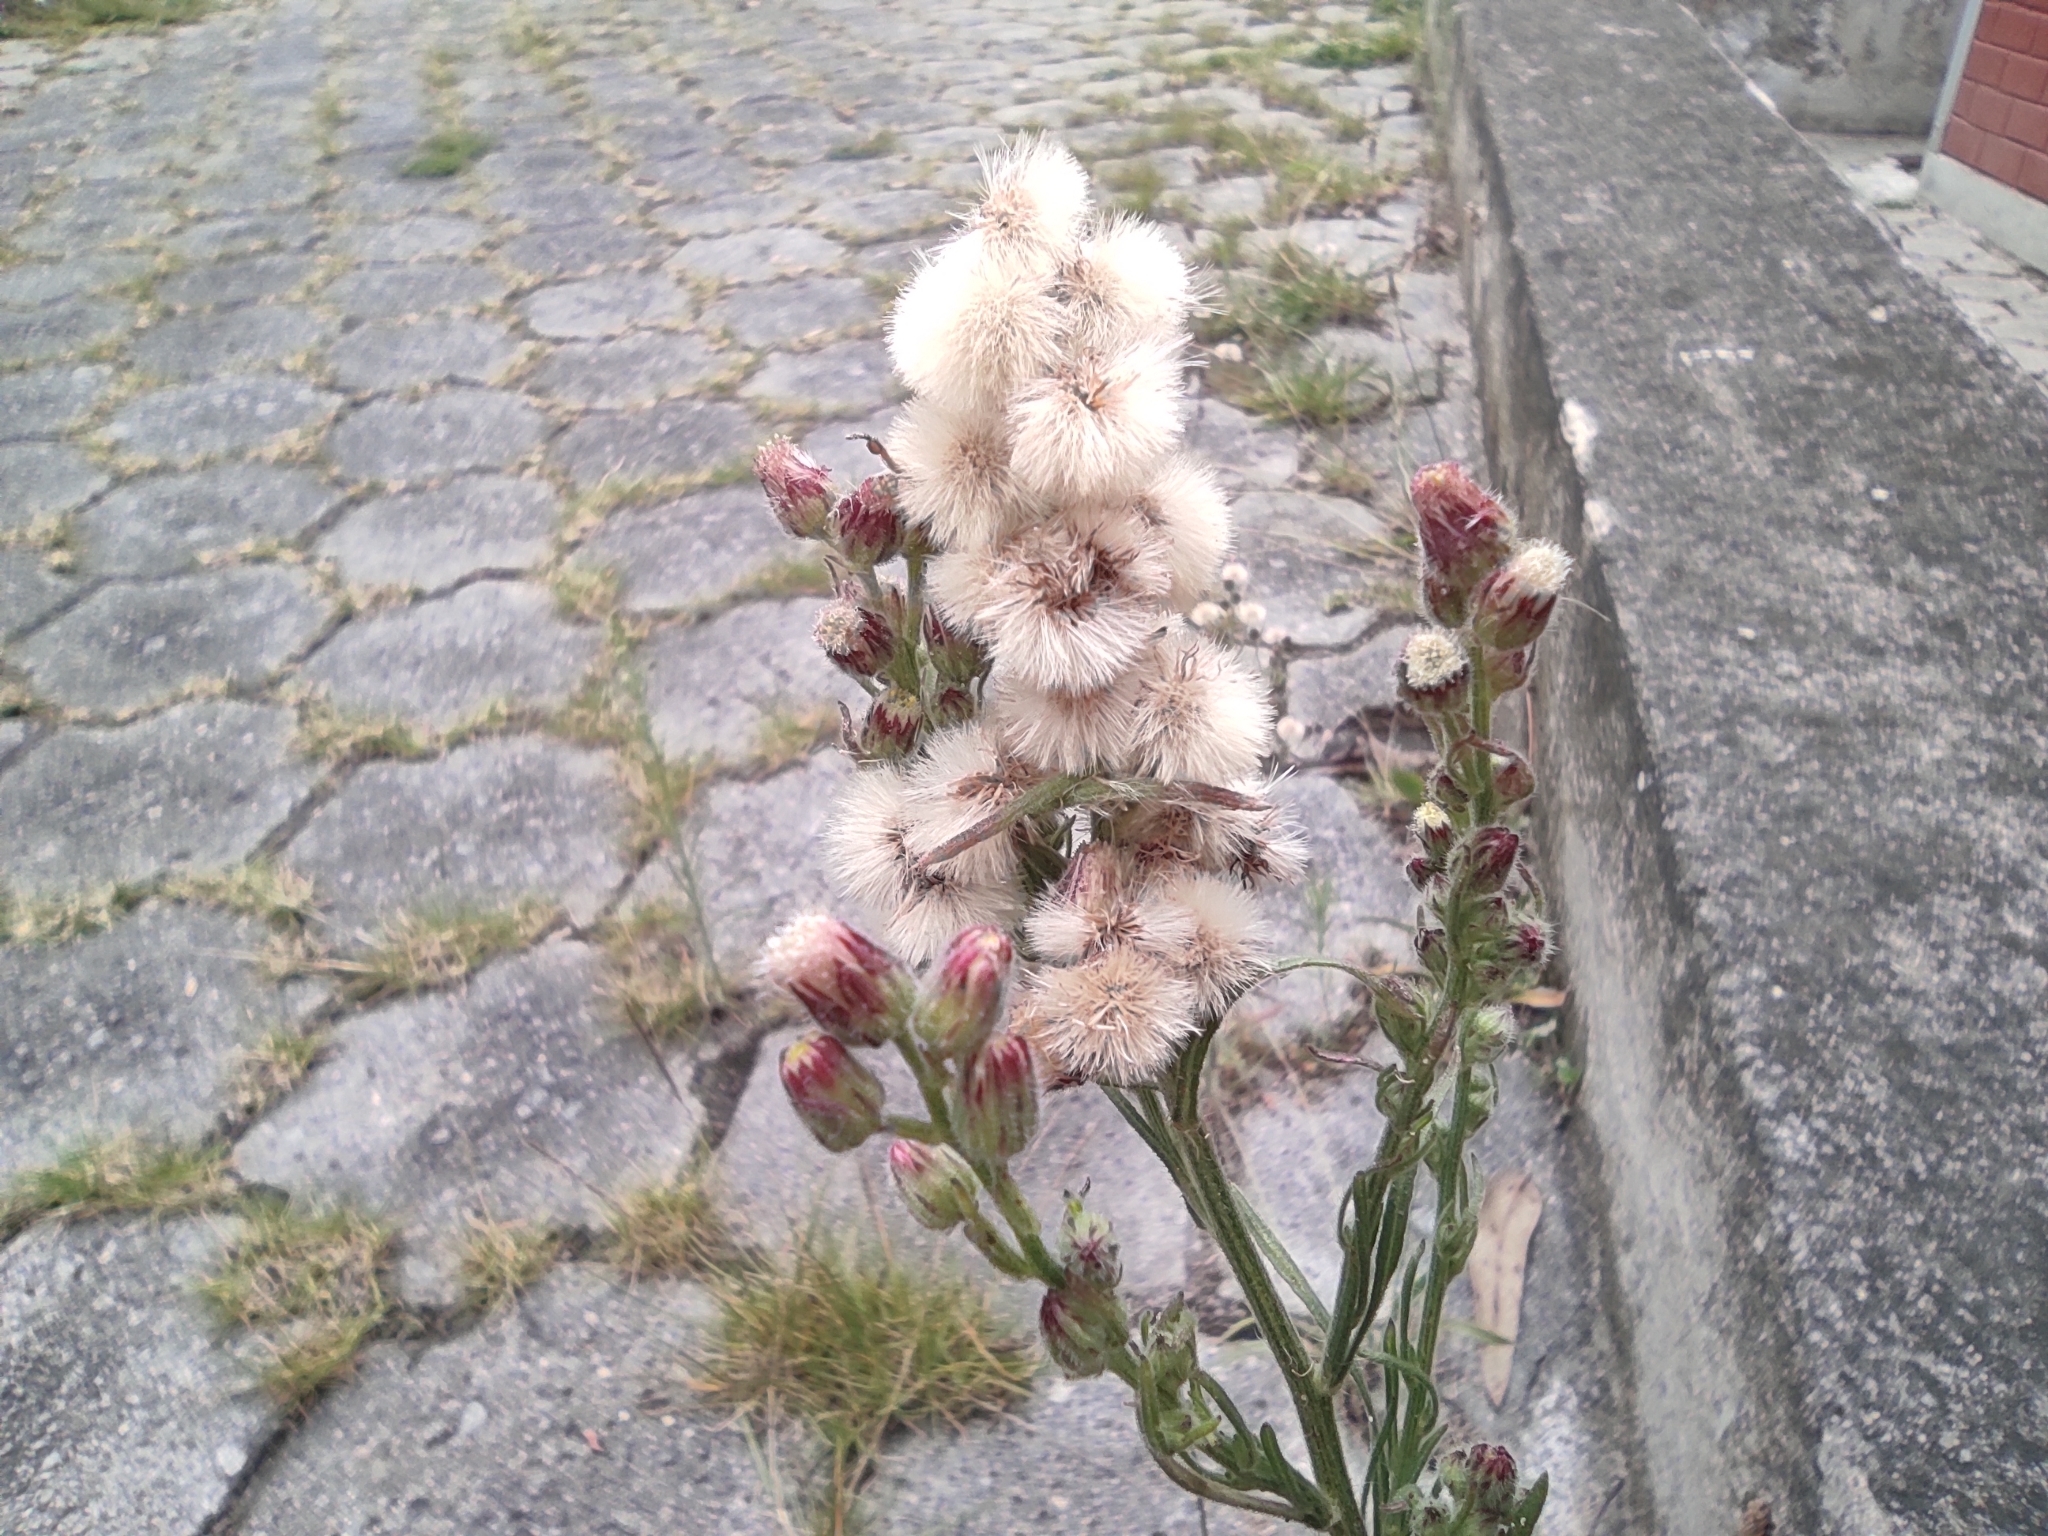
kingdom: Plantae
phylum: Tracheophyta
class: Magnoliopsida
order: Asterales
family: Asteraceae
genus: Erigeron
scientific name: Erigeron bonariensis
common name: Argentine fleabane
